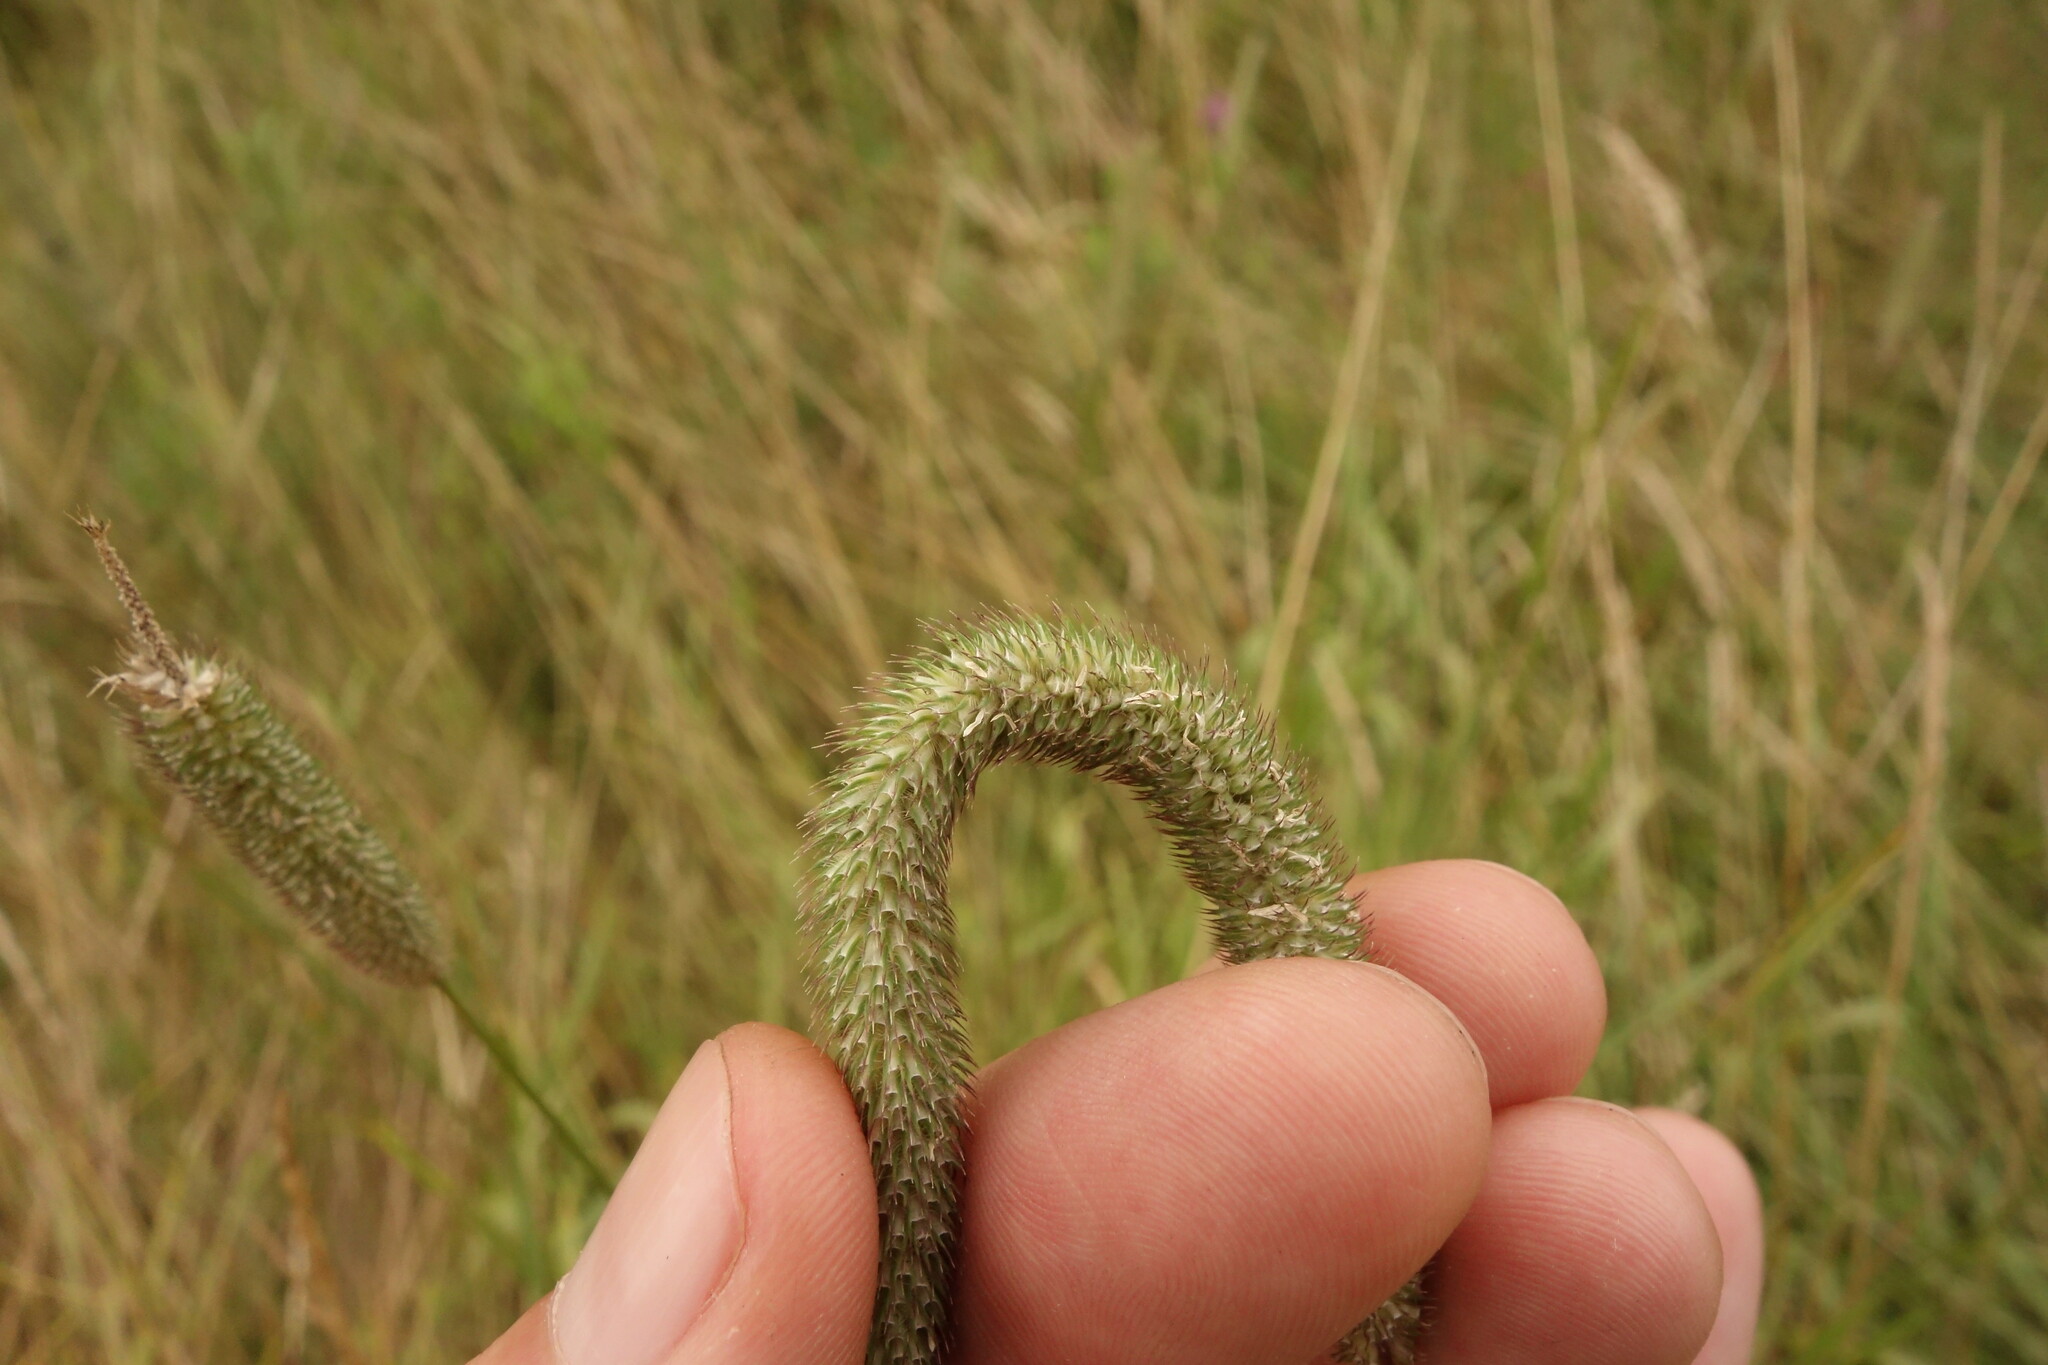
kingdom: Plantae
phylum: Tracheophyta
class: Liliopsida
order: Poales
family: Poaceae
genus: Phleum
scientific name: Phleum pratense
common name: Timothy grass
